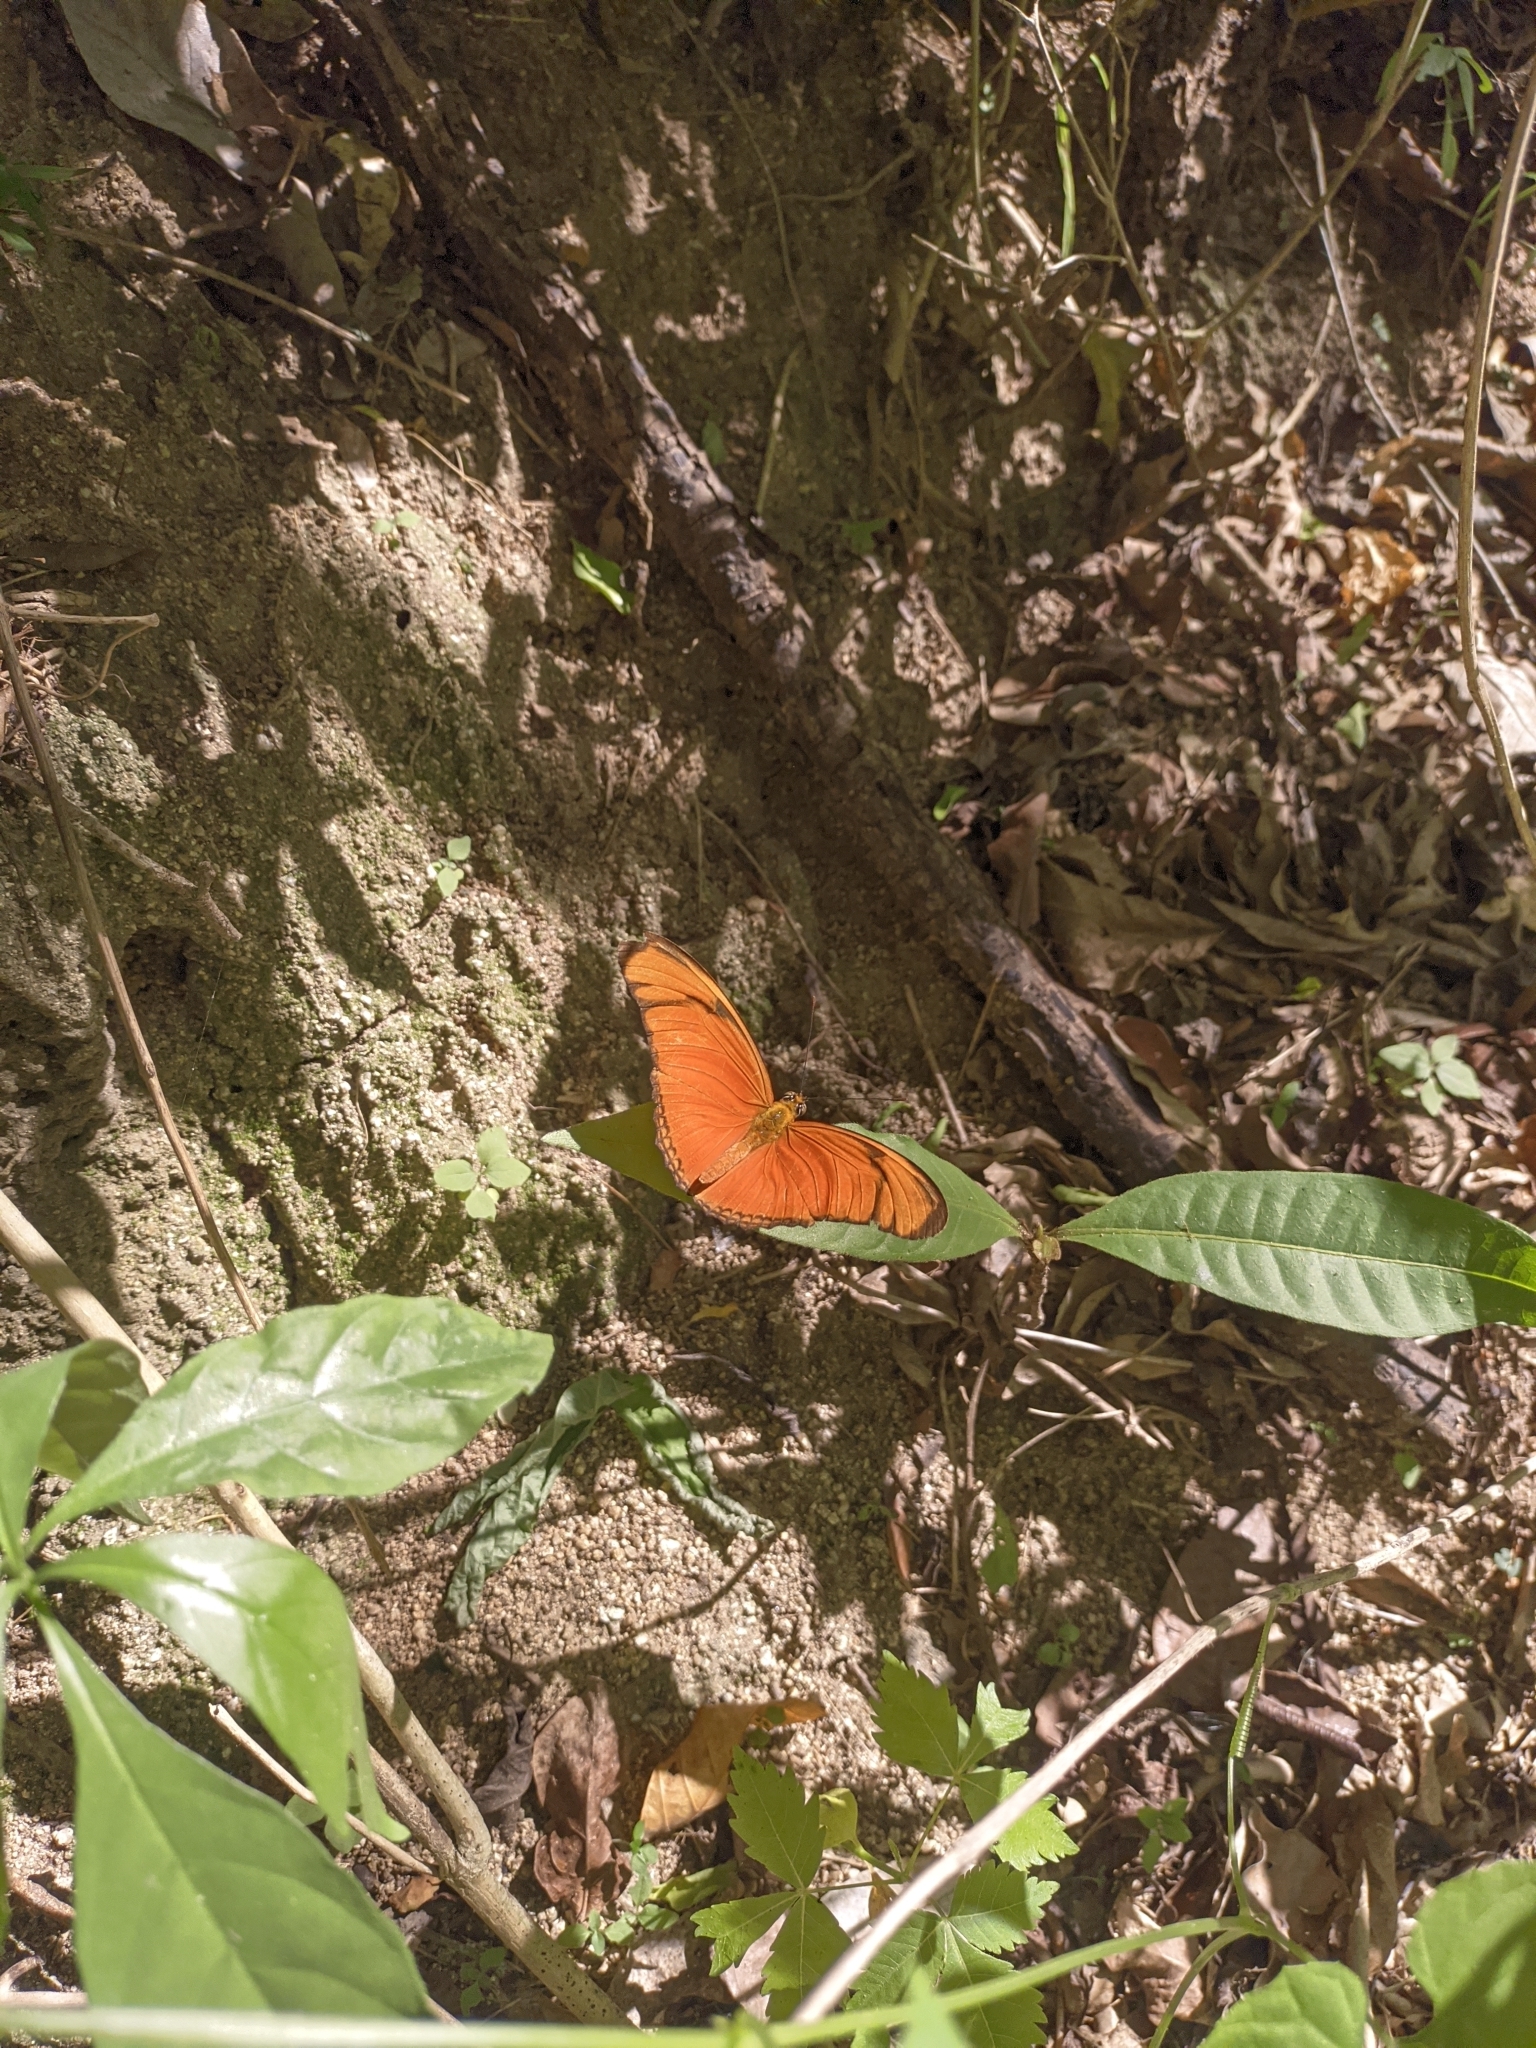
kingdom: Animalia
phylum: Arthropoda
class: Insecta
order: Lepidoptera
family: Nymphalidae
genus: Dryas
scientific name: Dryas iulia
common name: Flambeau
